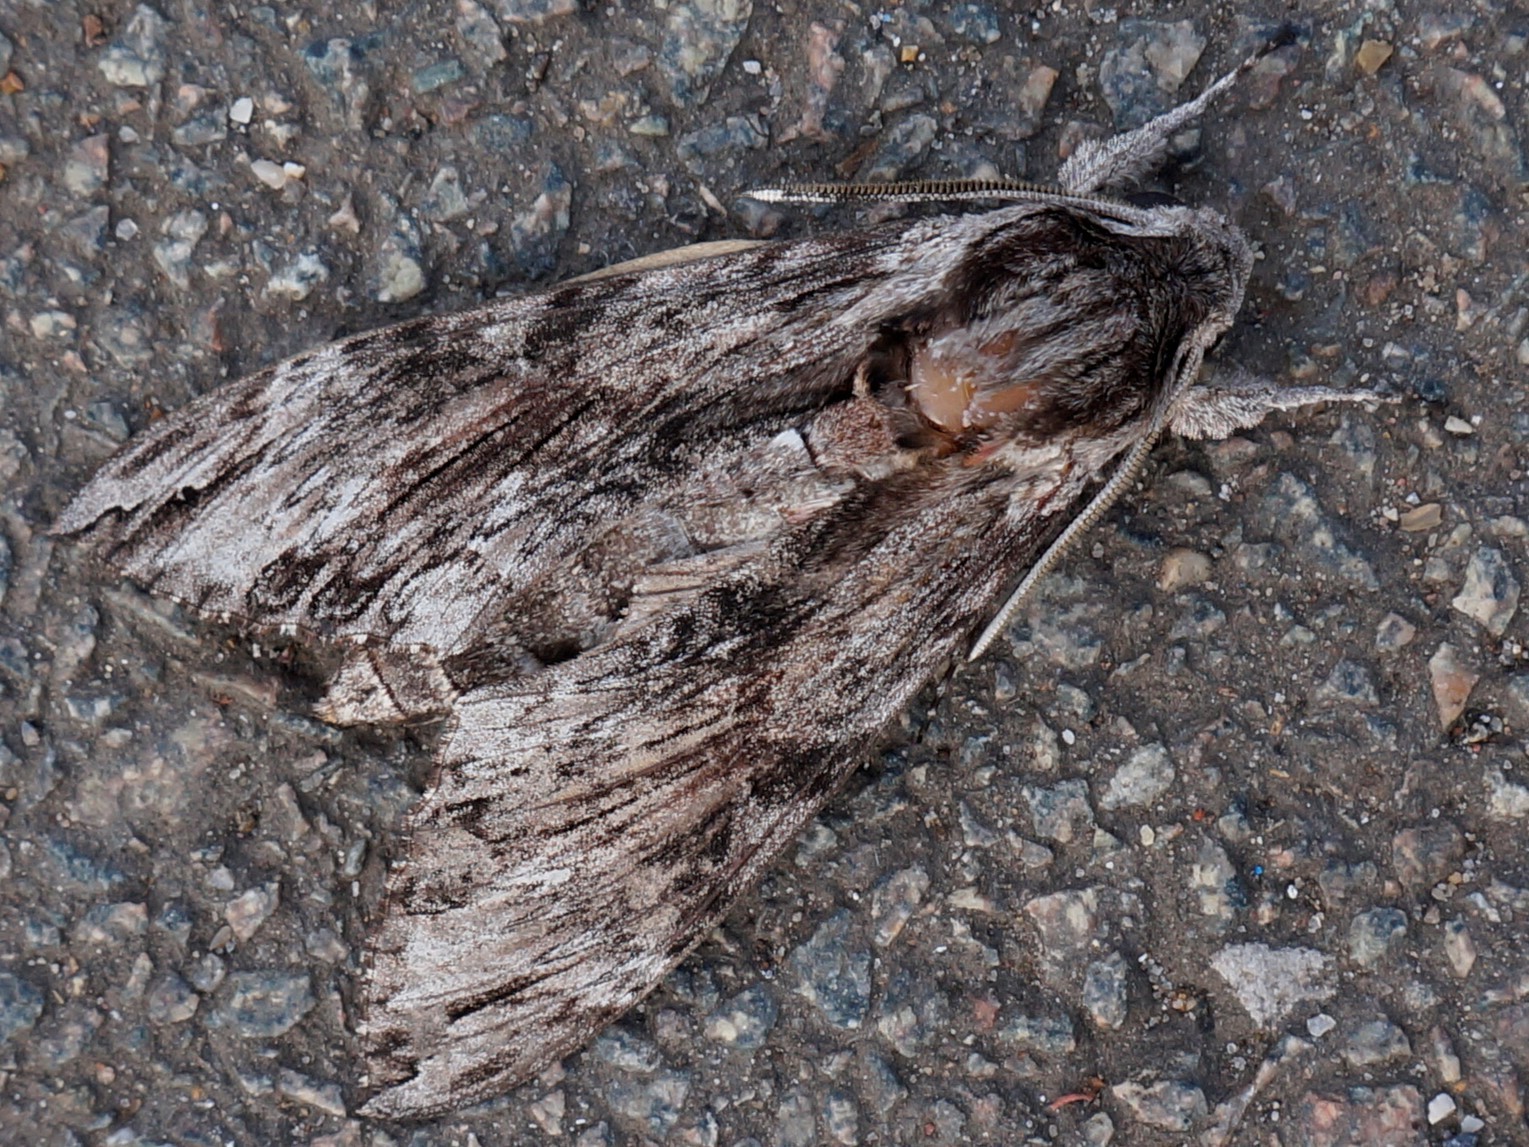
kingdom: Animalia
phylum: Arthropoda
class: Insecta
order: Lepidoptera
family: Sphingidae
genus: Agrius
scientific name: Agrius convolvuli
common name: Convolvulus hawkmoth
